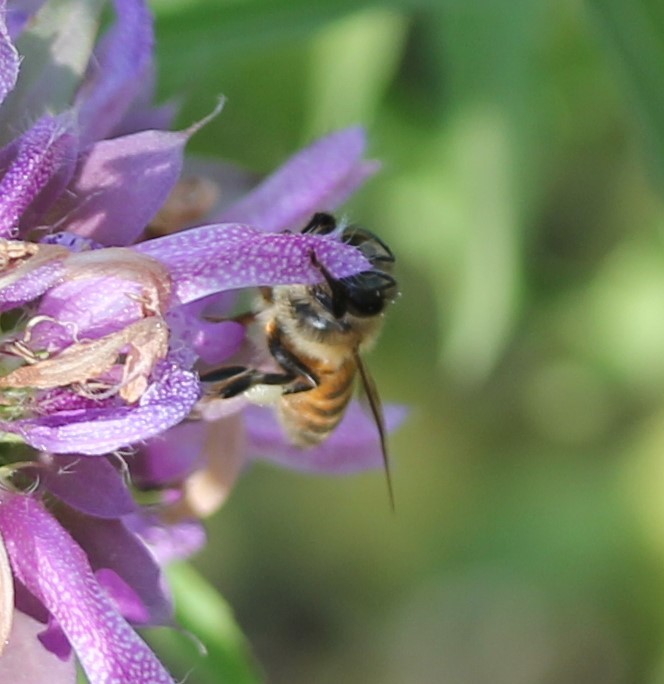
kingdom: Animalia
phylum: Arthropoda
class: Insecta
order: Hymenoptera
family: Apidae
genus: Apis
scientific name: Apis mellifera
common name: Honey bee
